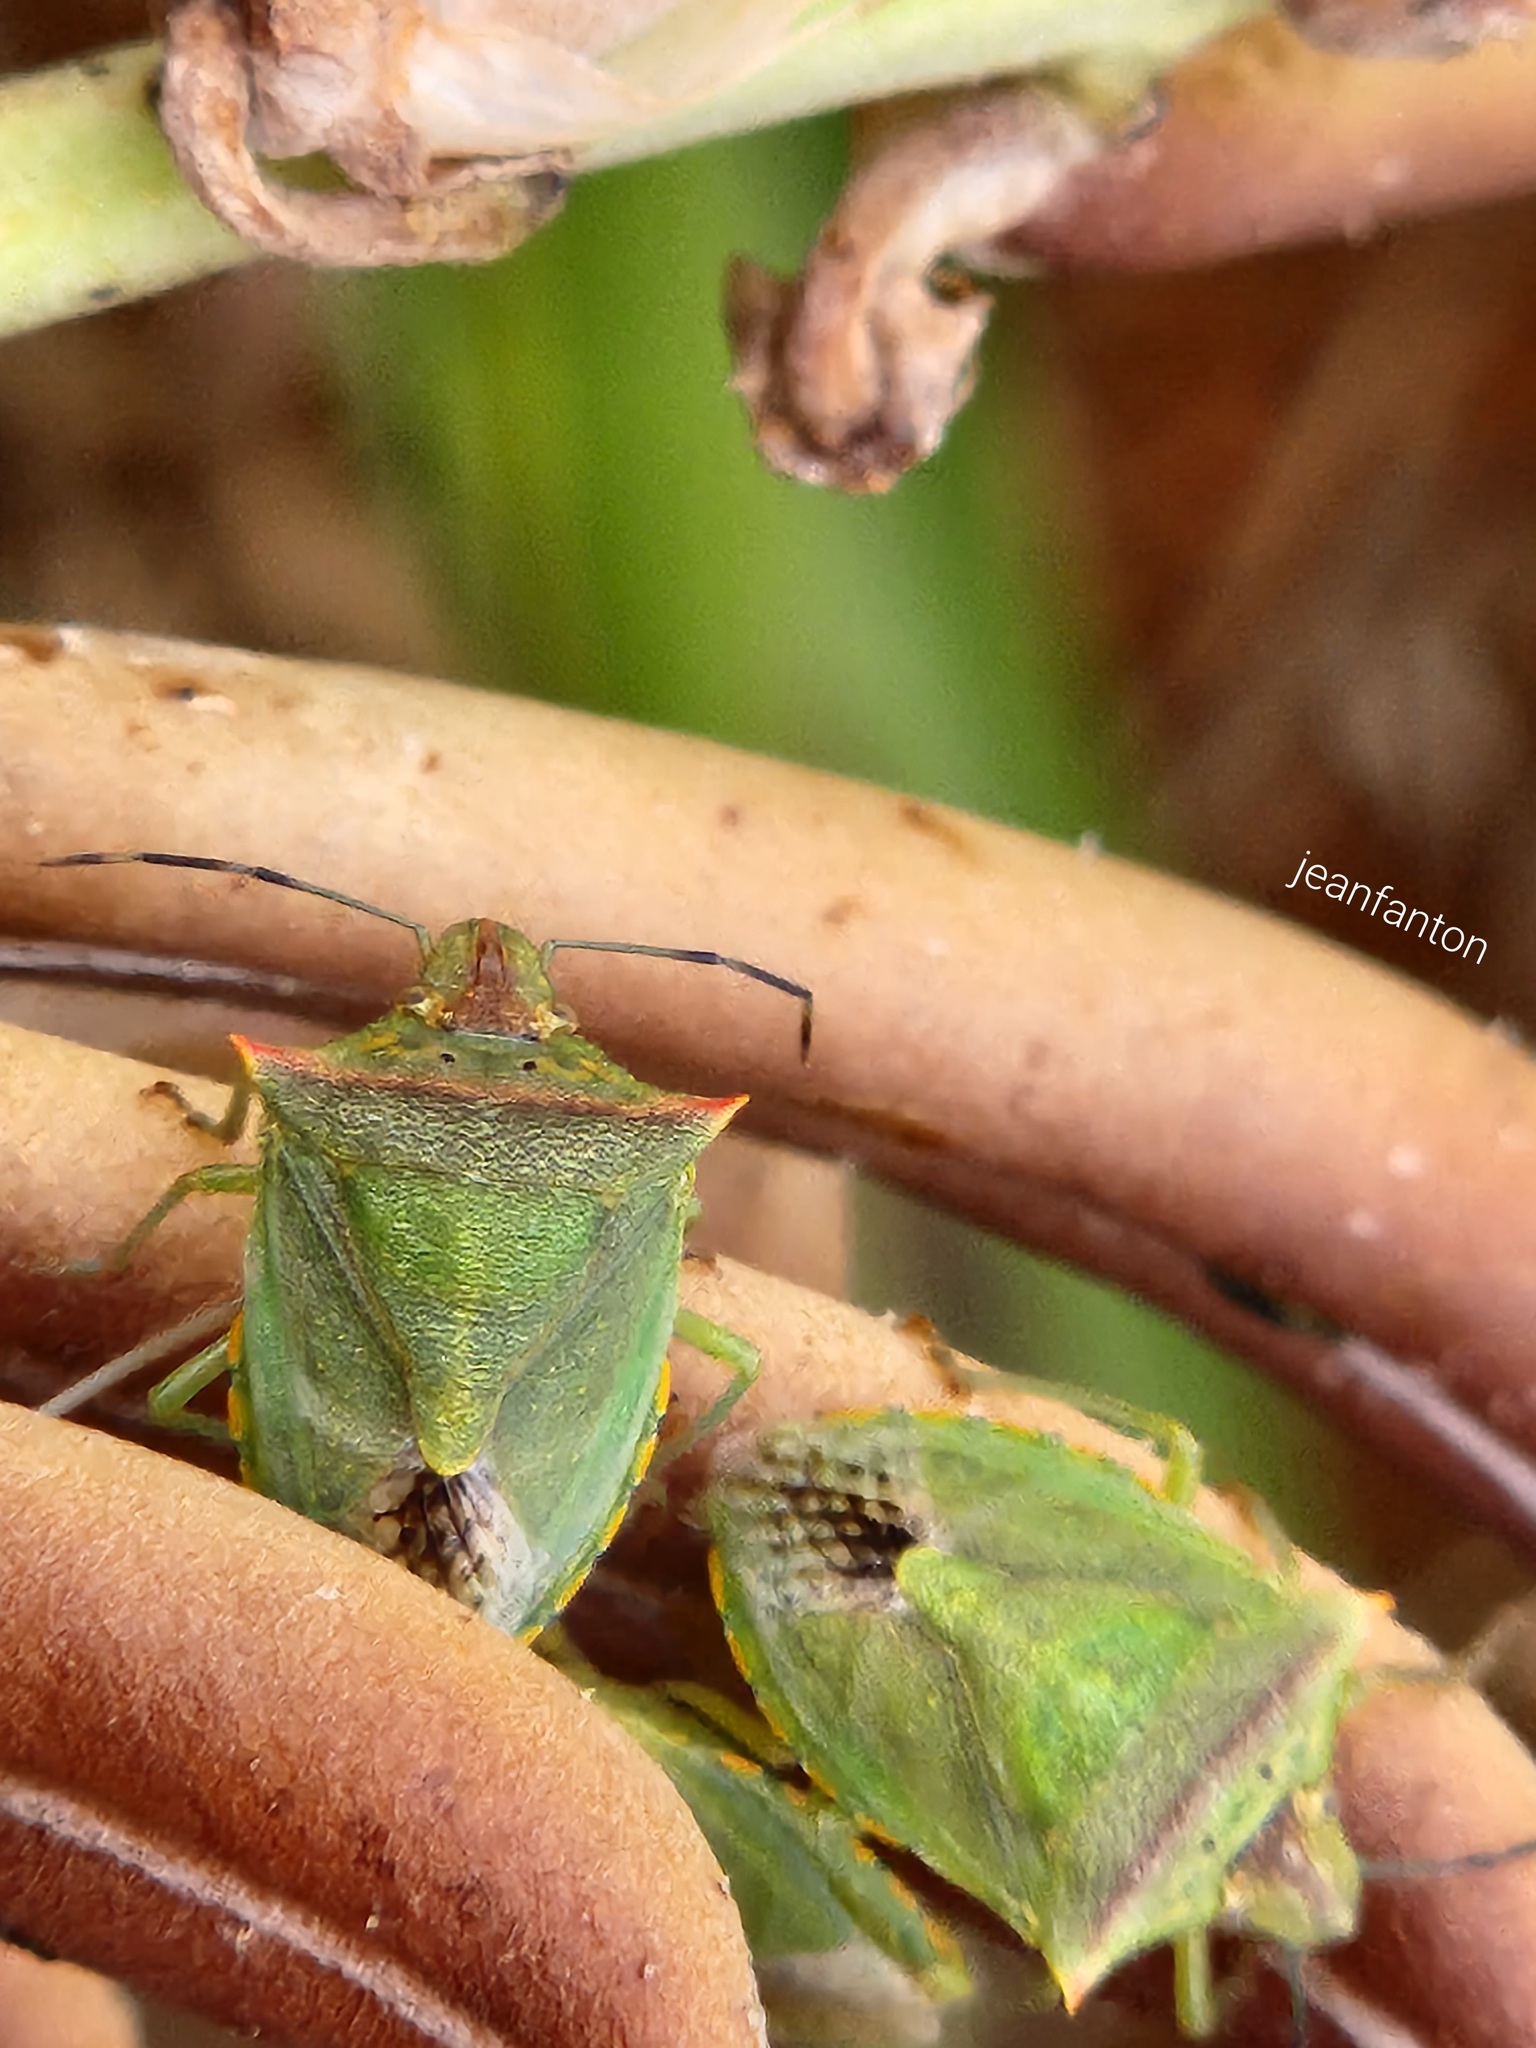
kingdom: Animalia
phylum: Arthropoda
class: Insecta
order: Hemiptera
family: Pentatomidae
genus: Thyanta
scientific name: Thyanta perditor
